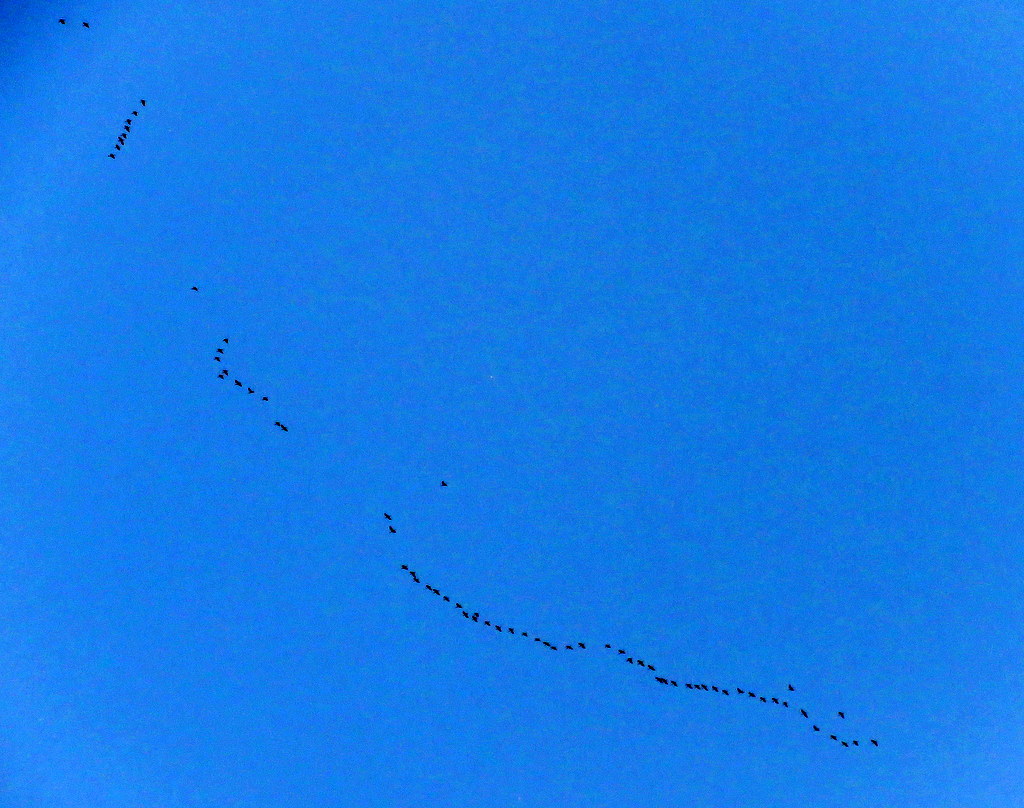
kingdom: Animalia
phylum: Chordata
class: Aves
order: Pelecaniformes
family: Threskiornithidae
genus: Plegadis
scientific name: Plegadis chihi
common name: White-faced ibis
